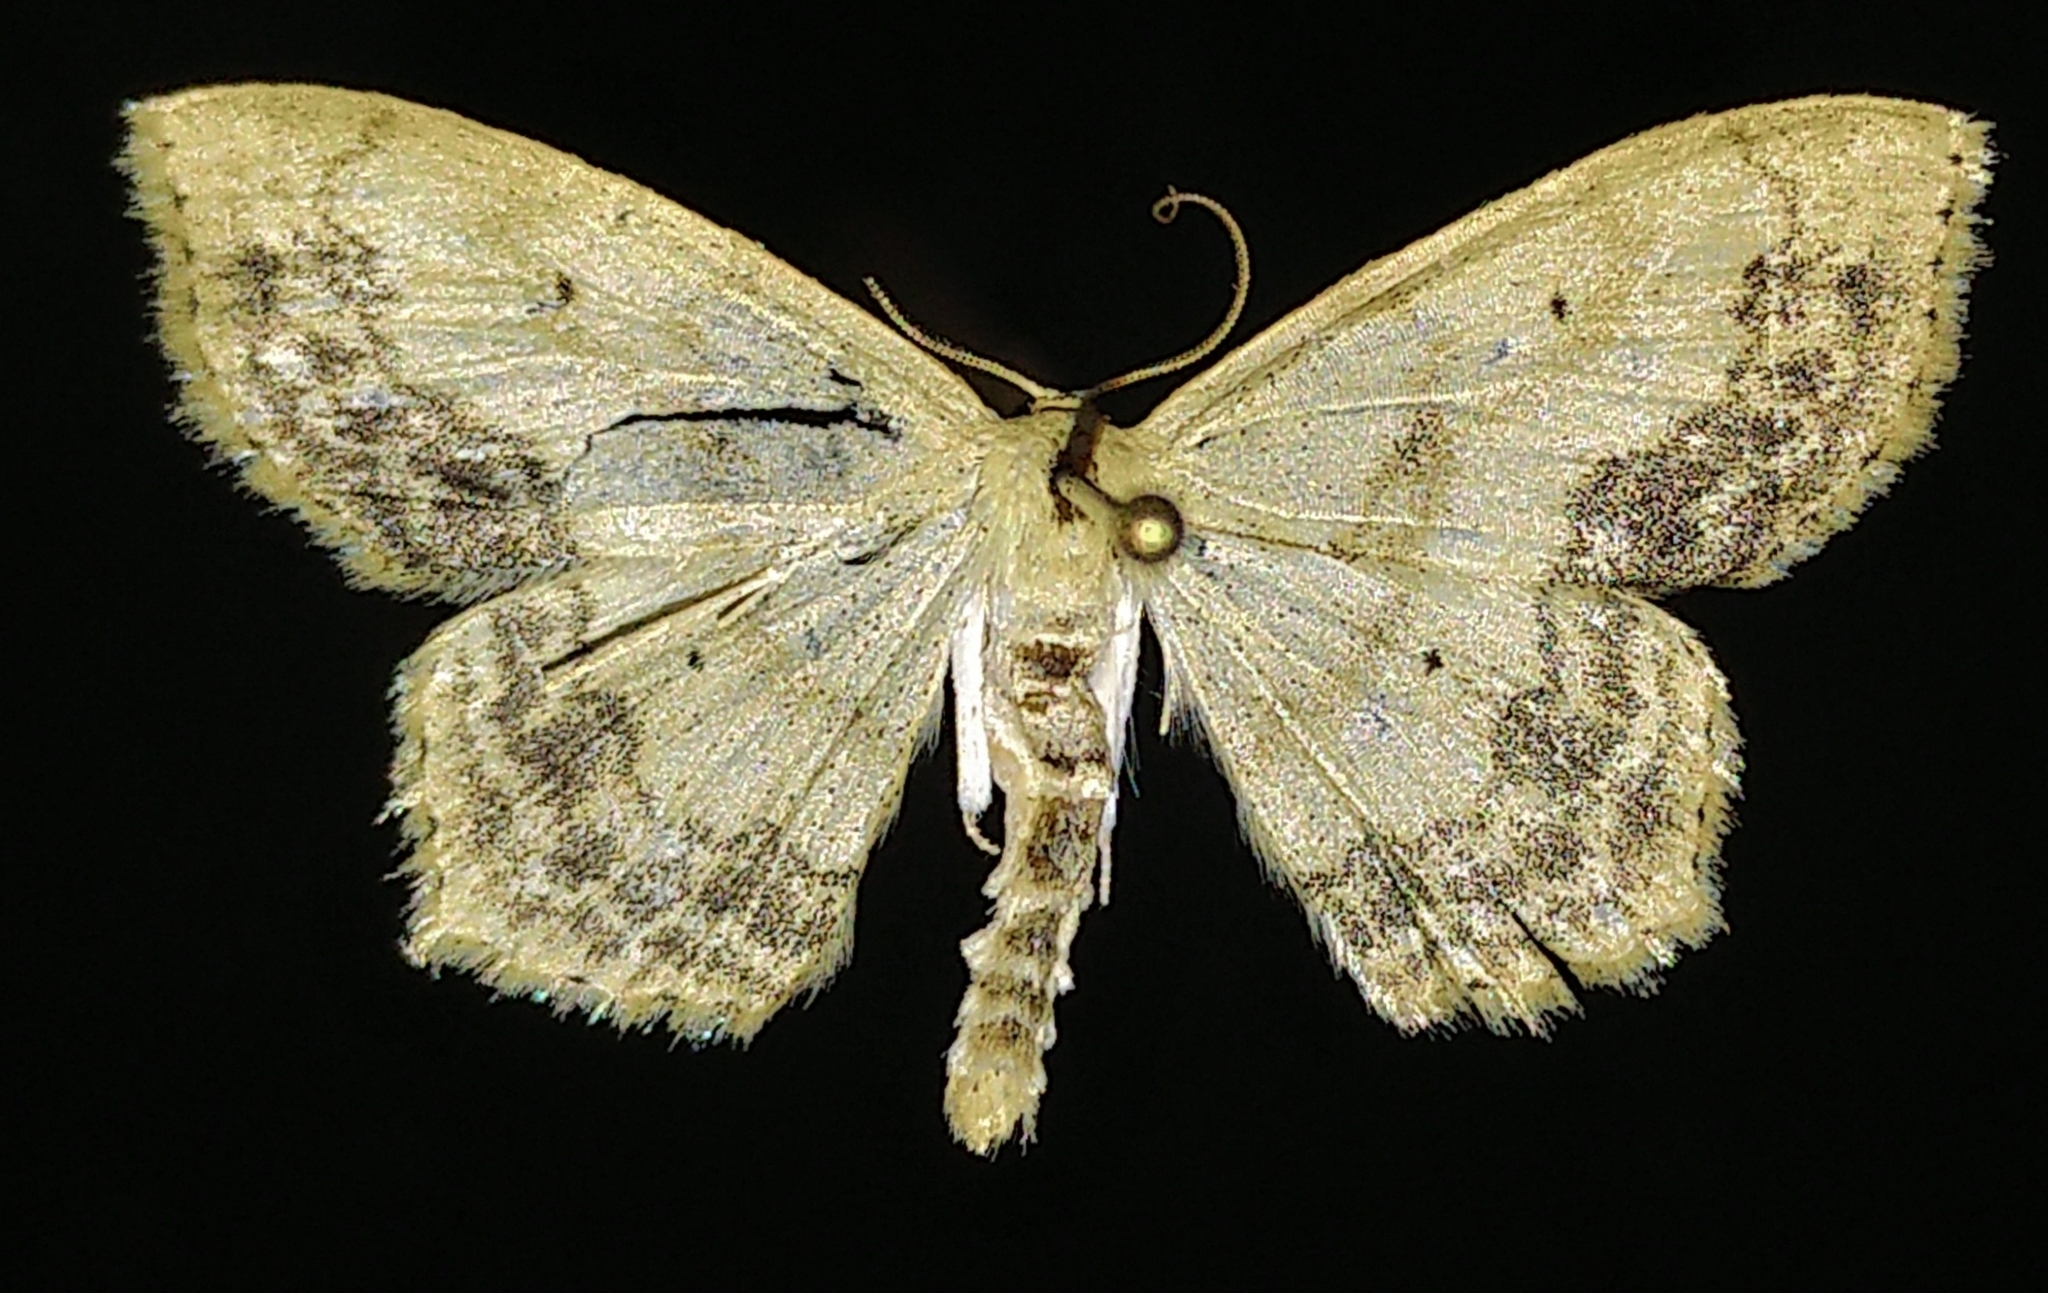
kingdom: Animalia
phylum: Arthropoda
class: Insecta
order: Lepidoptera
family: Geometridae
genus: Scopula
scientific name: Scopula limboundata
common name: Large lace border
